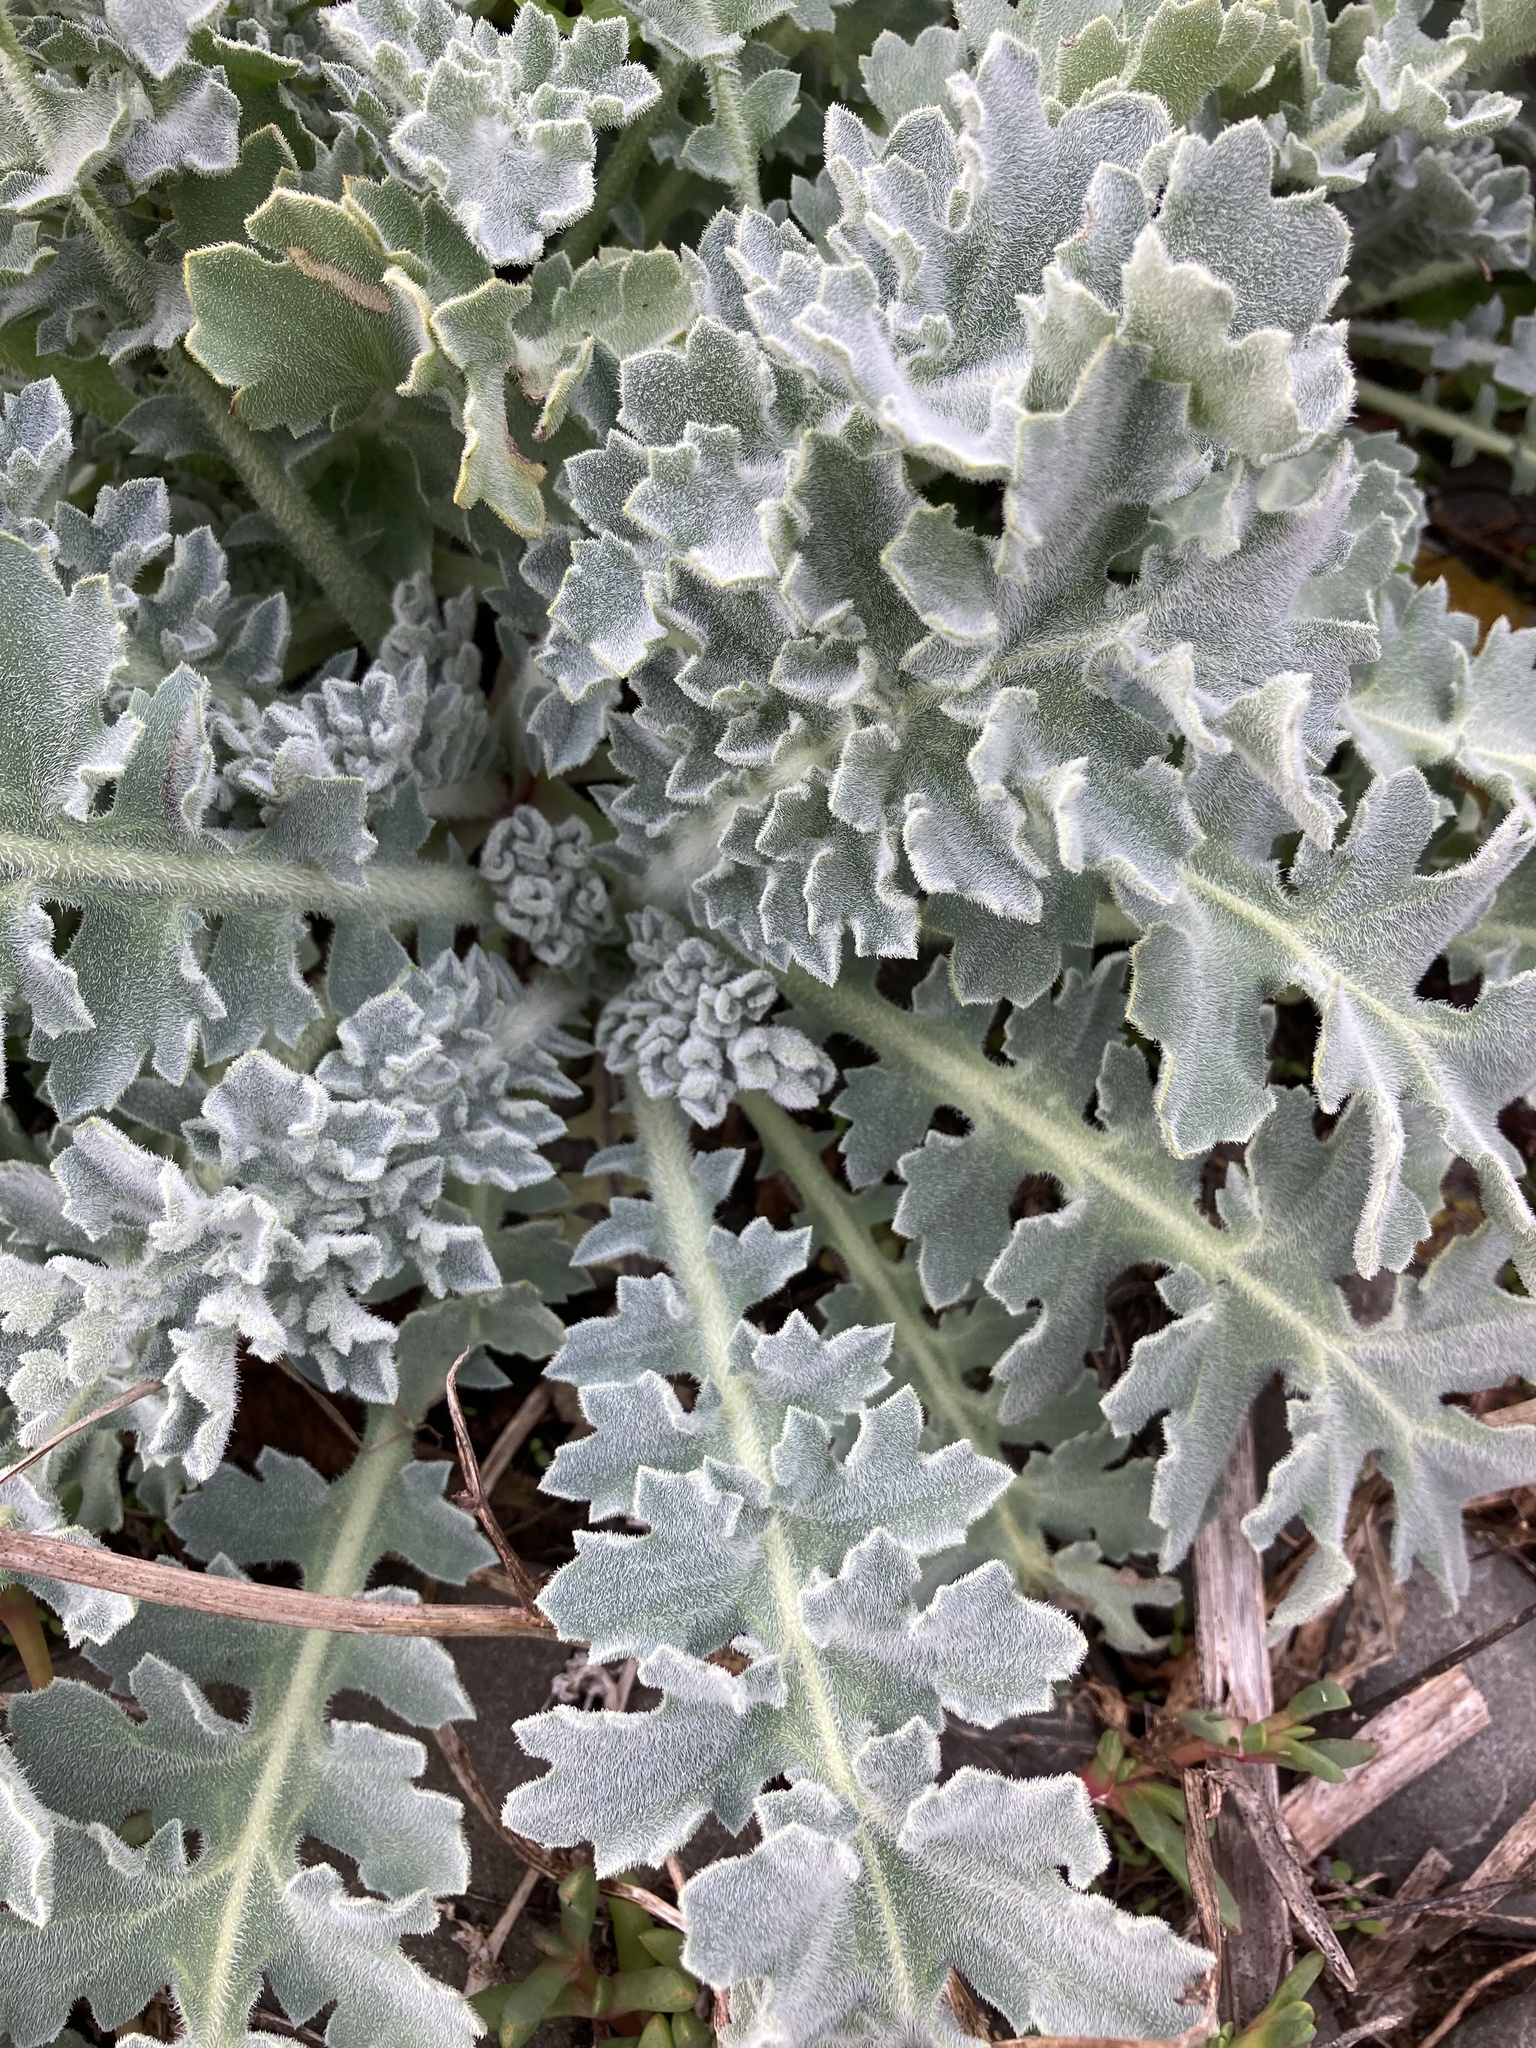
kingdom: Plantae
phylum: Tracheophyta
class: Magnoliopsida
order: Ranunculales
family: Papaveraceae
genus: Glaucium
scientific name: Glaucium flavum
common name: Yellow horned-poppy
